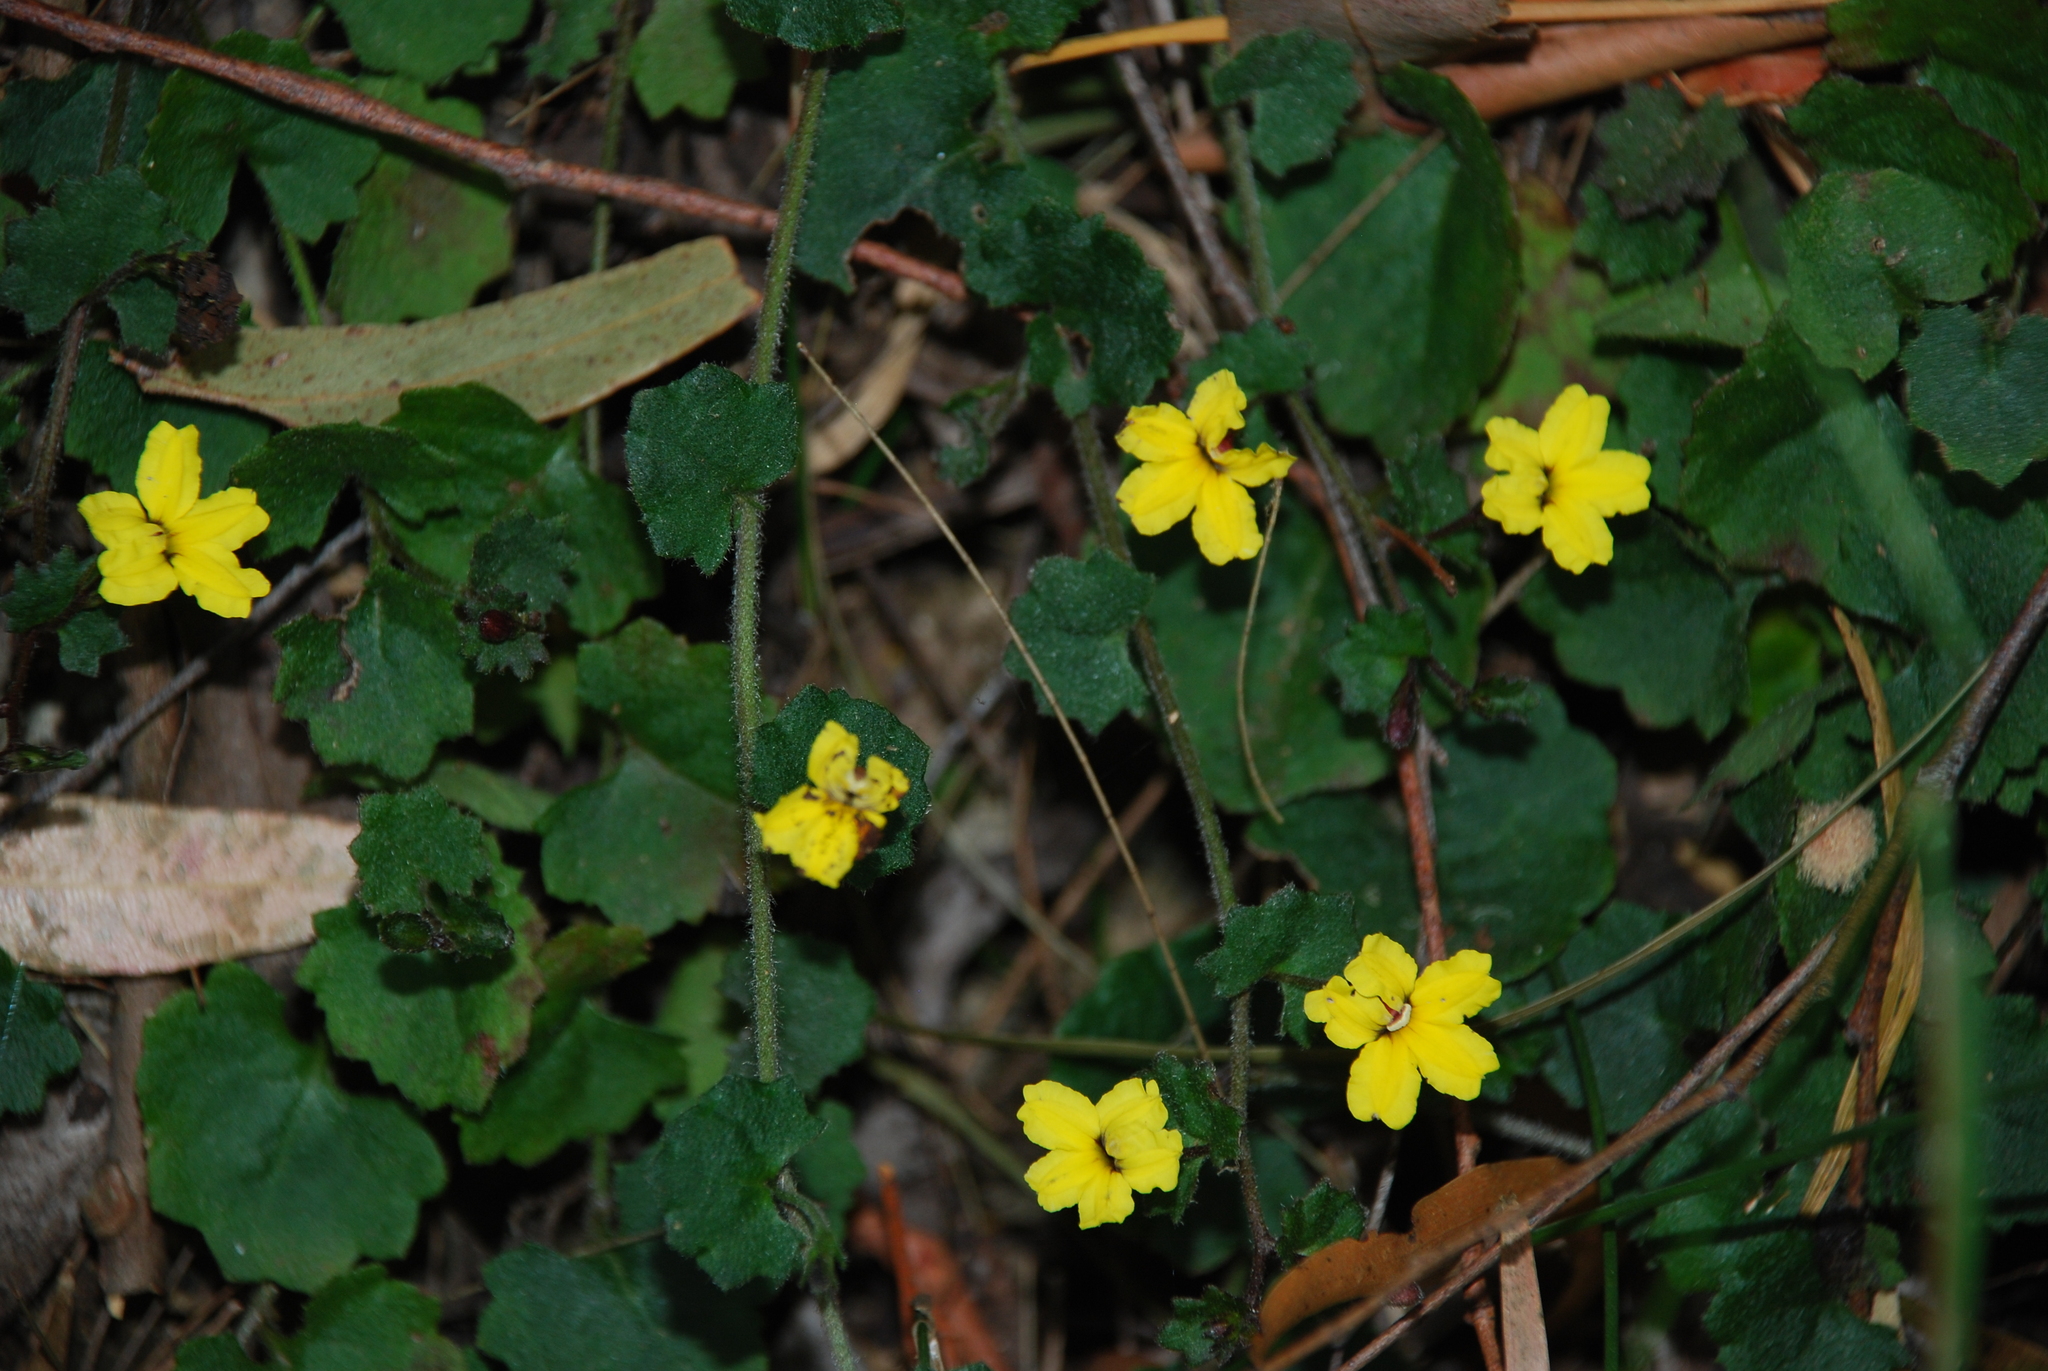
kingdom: Plantae
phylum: Tracheophyta
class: Magnoliopsida
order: Asterales
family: Goodeniaceae
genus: Goodenia
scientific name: Goodenia rotundifolia
